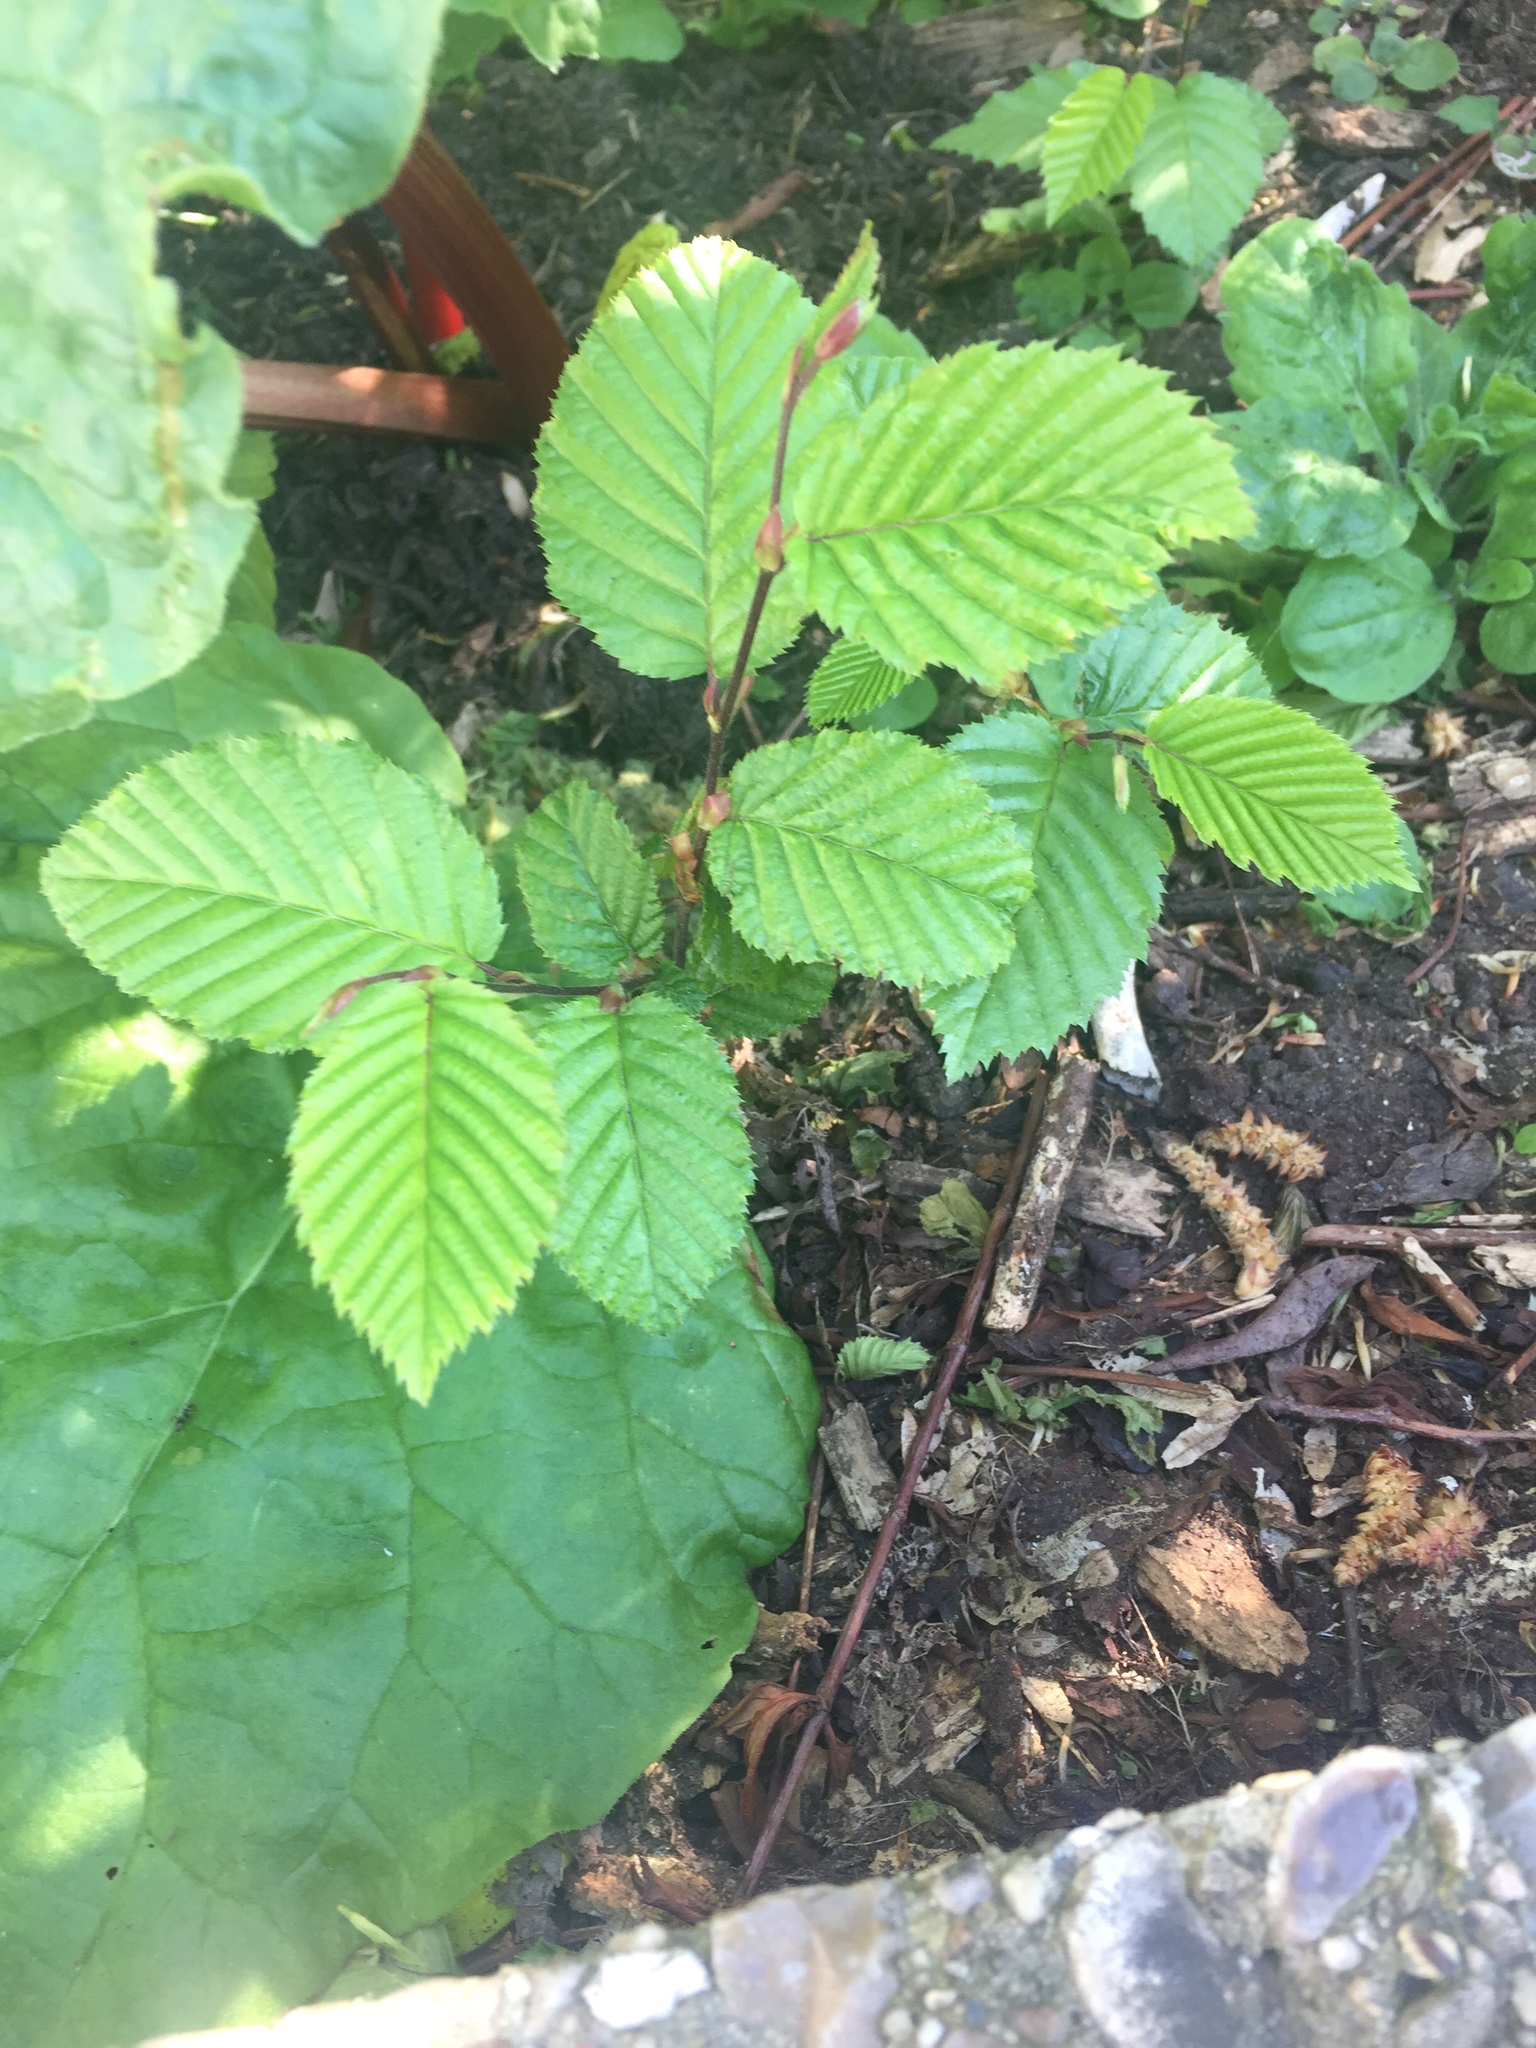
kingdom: Plantae
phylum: Tracheophyta
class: Magnoliopsida
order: Fagales
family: Betulaceae
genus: Carpinus
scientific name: Carpinus betulus
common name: Hornbeam
